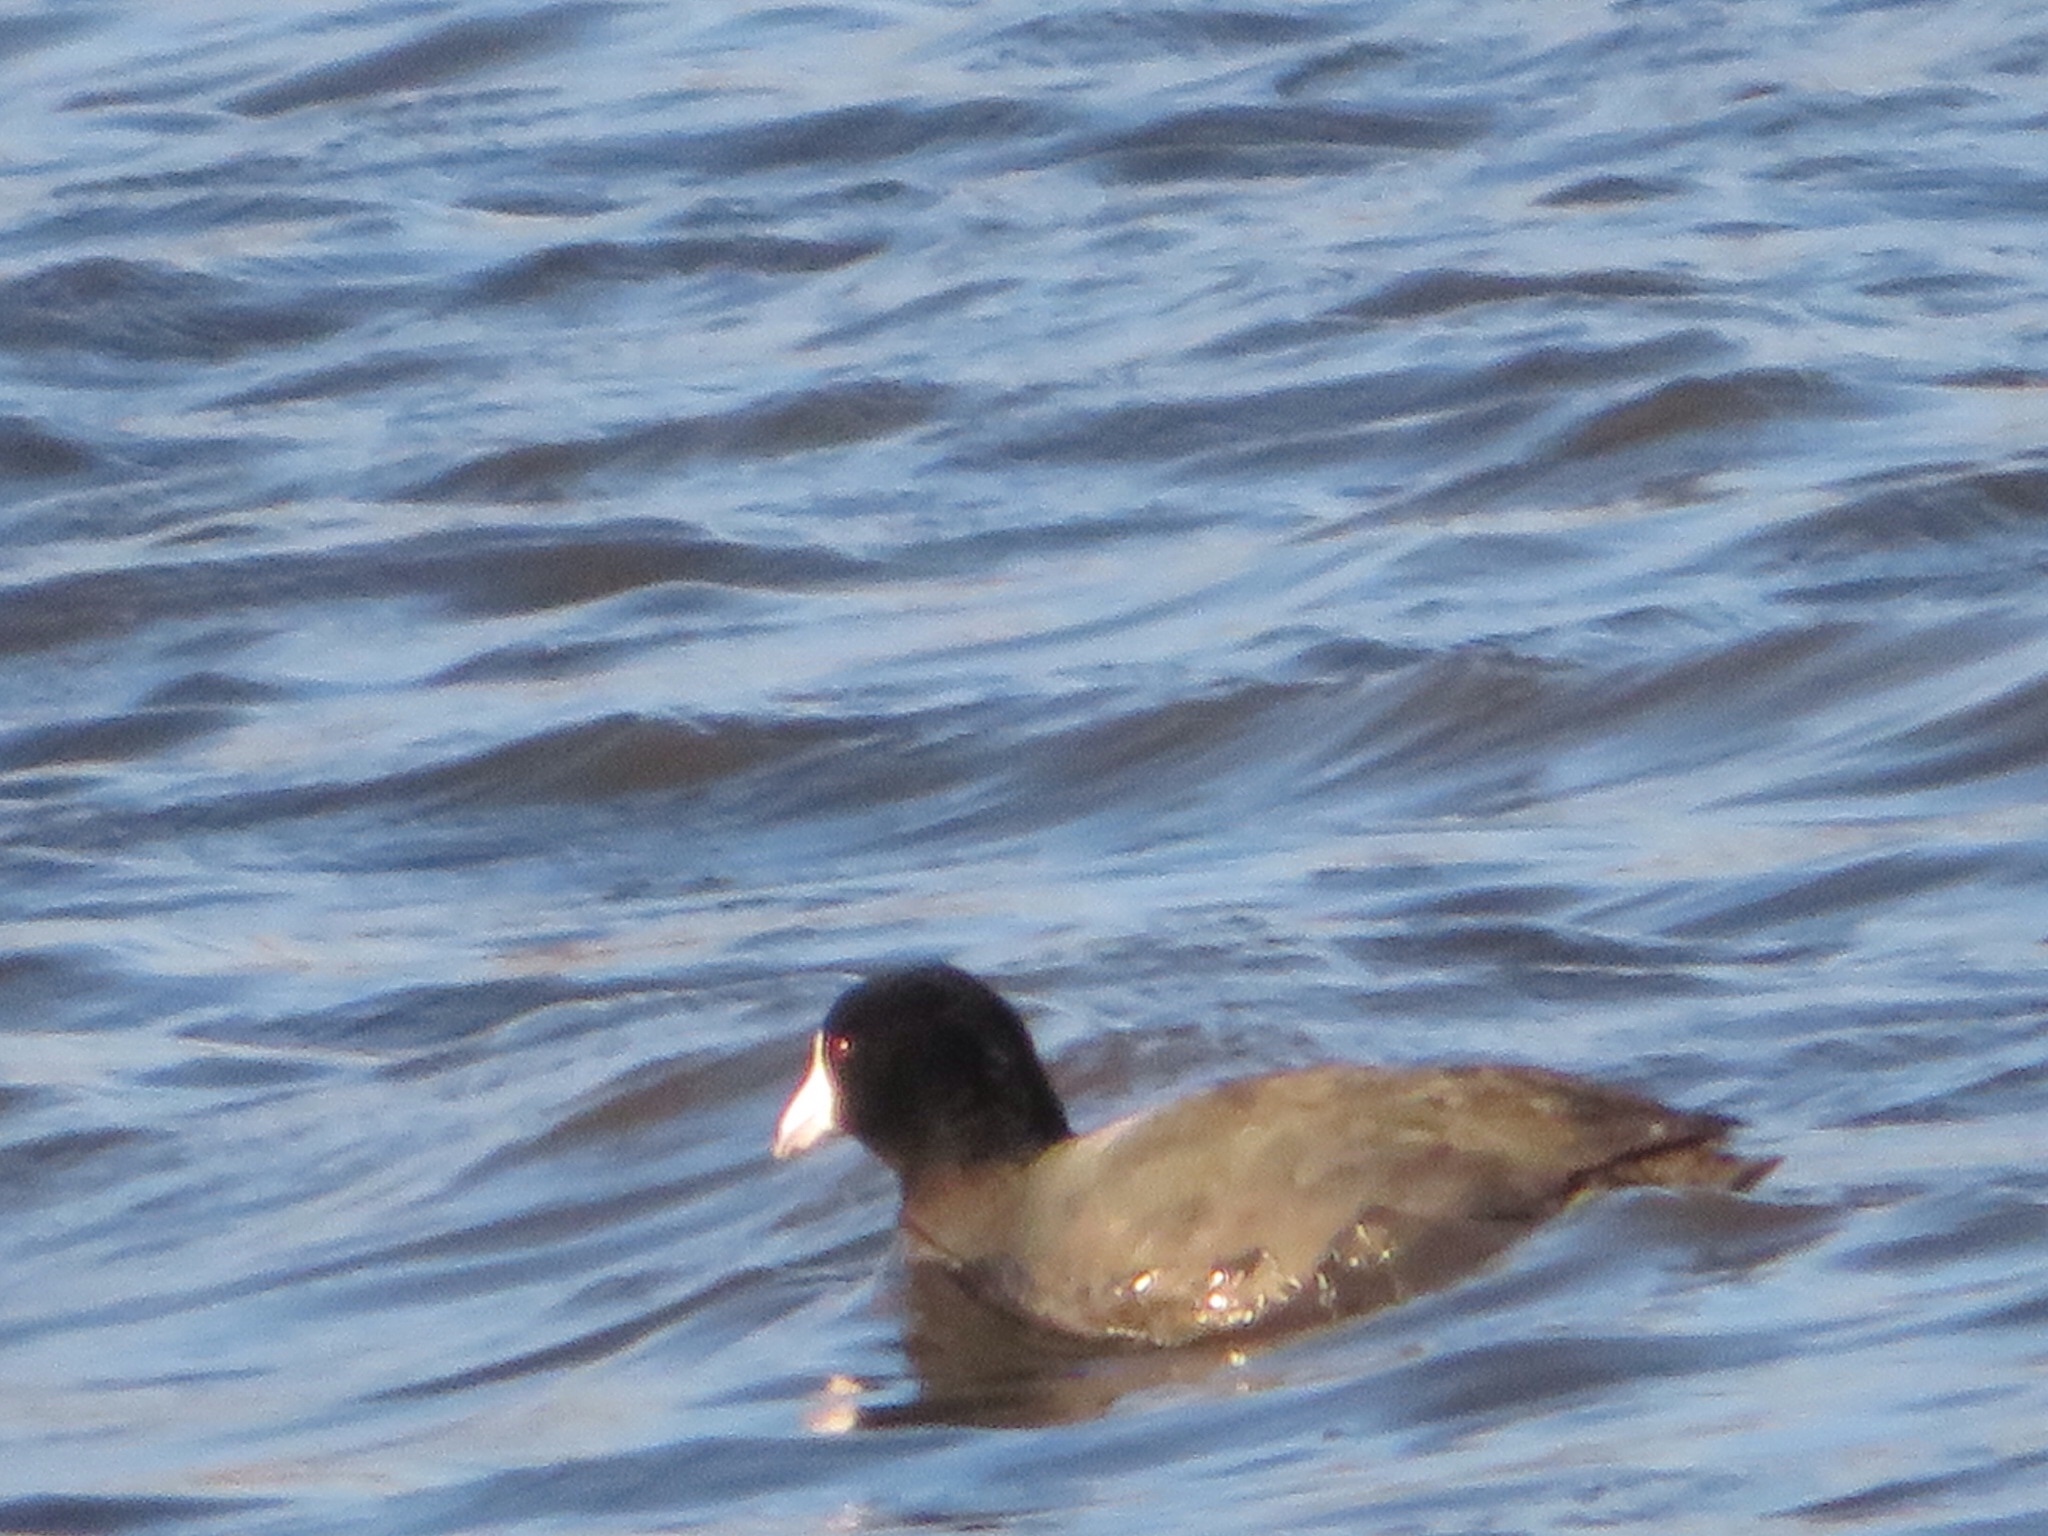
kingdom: Animalia
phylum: Chordata
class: Aves
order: Gruiformes
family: Rallidae
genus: Fulica
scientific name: Fulica americana
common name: American coot
